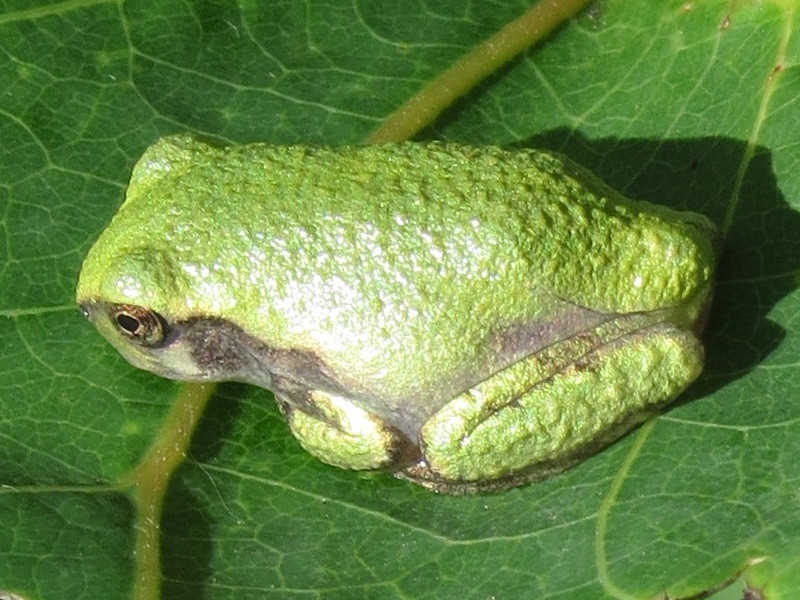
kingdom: Animalia
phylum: Chordata
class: Amphibia
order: Anura
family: Hylidae
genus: Dryophytes
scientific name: Dryophytes versicolor
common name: Gray treefrog
